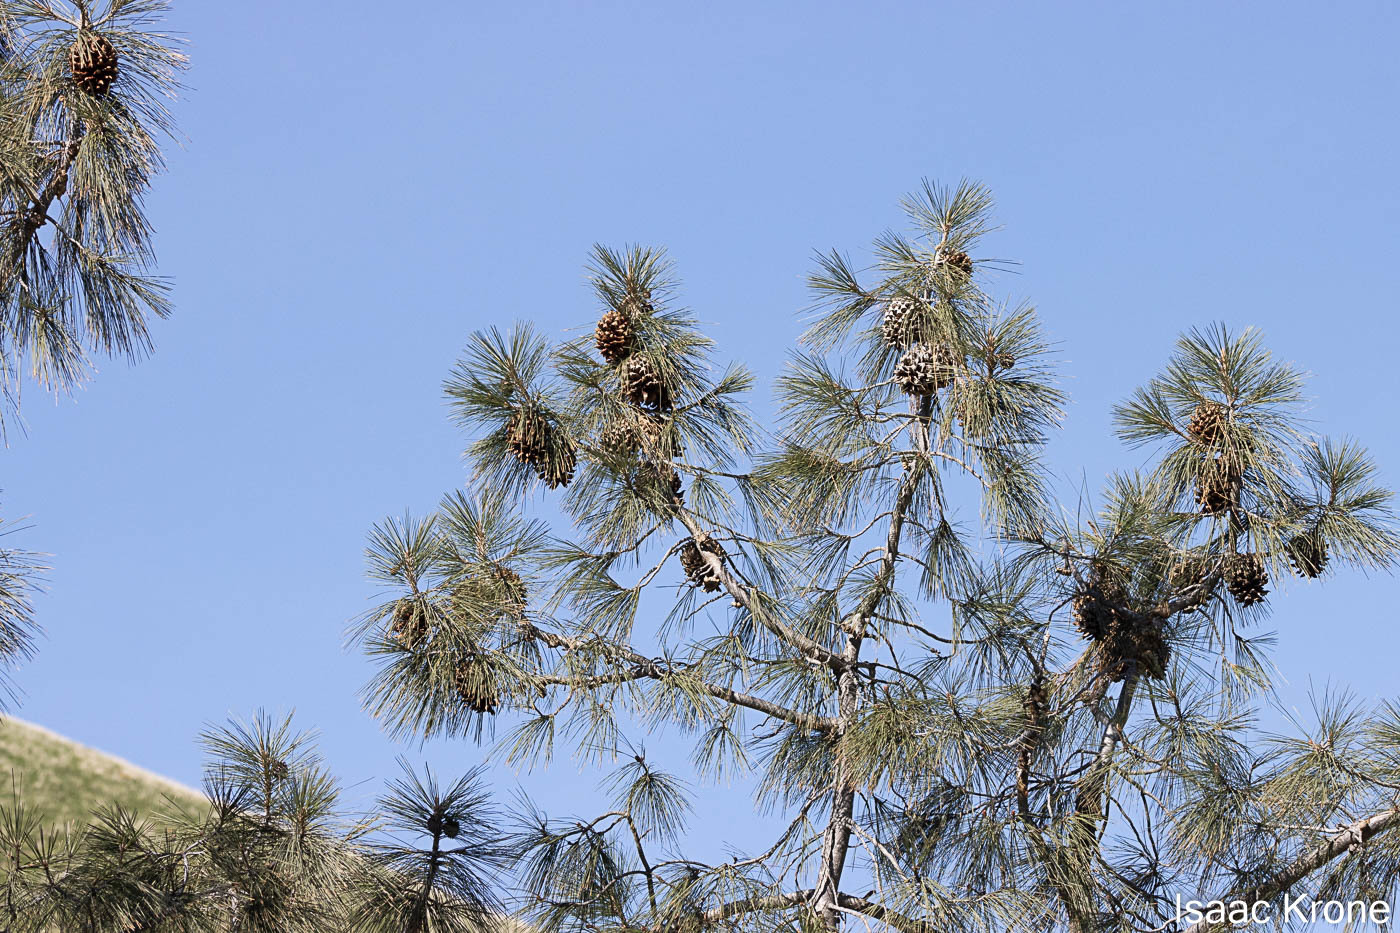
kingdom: Plantae
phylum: Tracheophyta
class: Pinopsida
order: Pinales
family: Pinaceae
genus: Pinus
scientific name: Pinus sabiniana
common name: Bull pine
